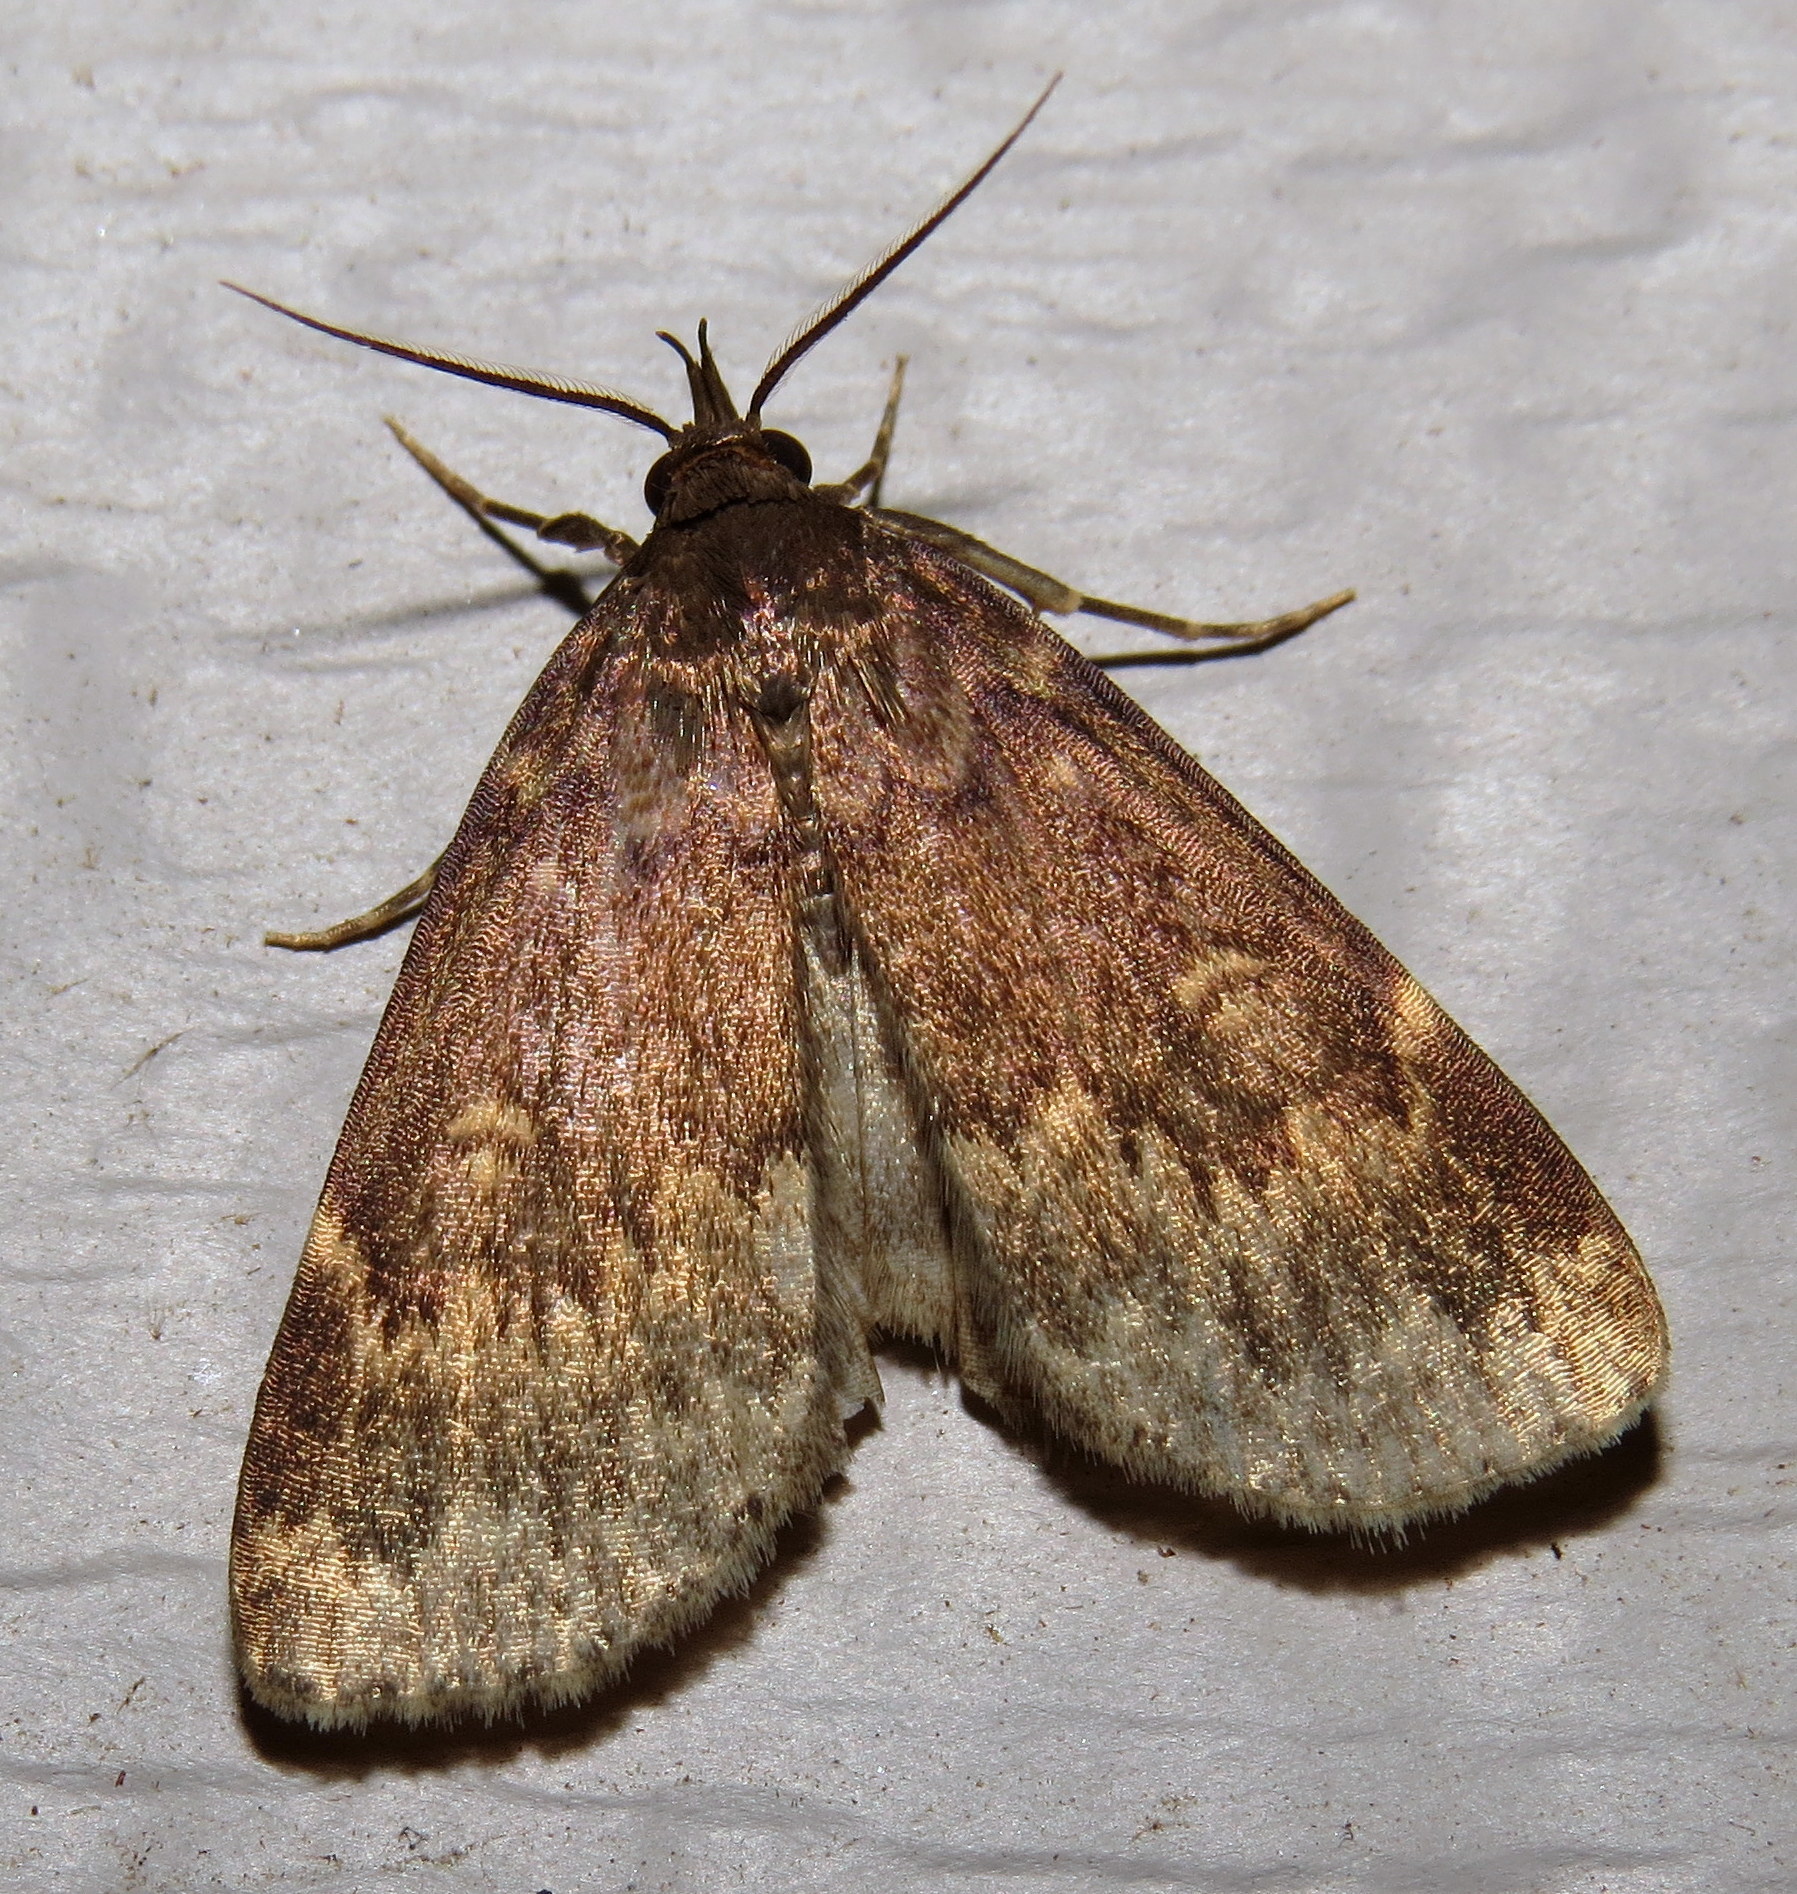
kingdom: Animalia
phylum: Arthropoda
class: Insecta
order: Lepidoptera
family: Erebidae
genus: Idia
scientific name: Idia lubricalis
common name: Twin-striped tabby
